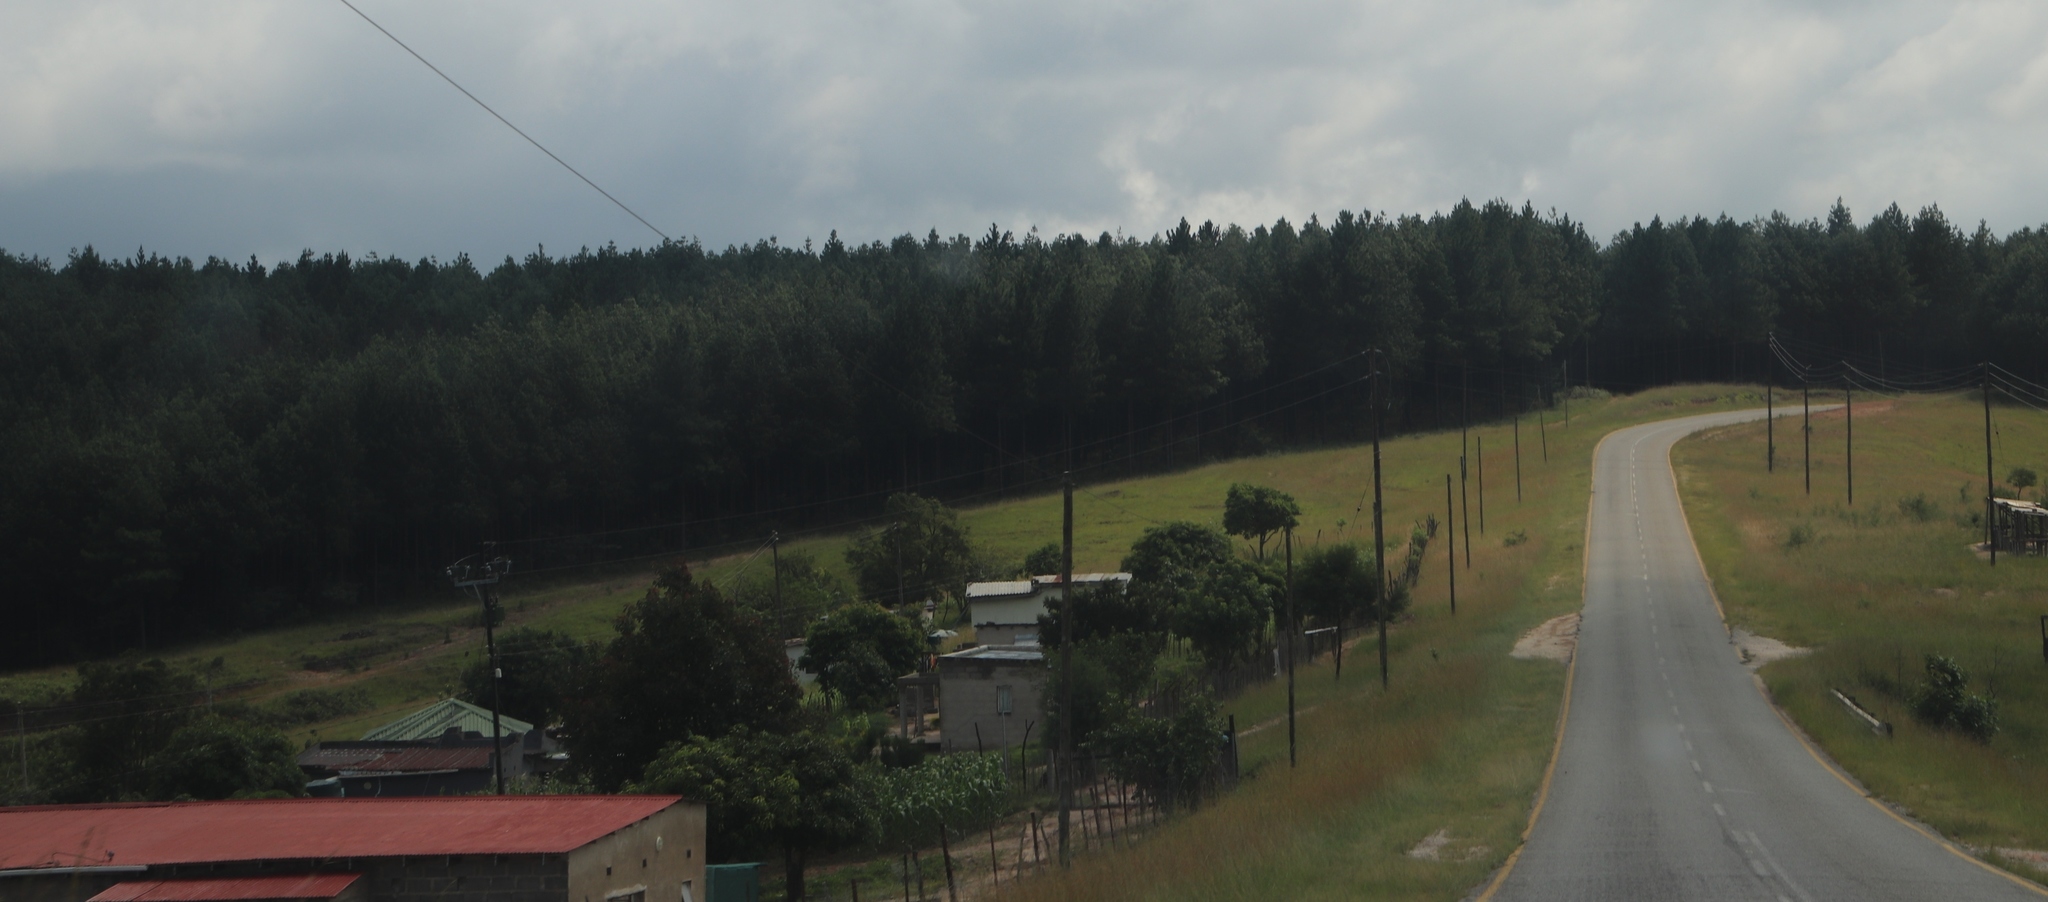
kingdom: Plantae
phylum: Tracheophyta
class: Pinopsida
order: Pinales
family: Pinaceae
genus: Pinus
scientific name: Pinus patula
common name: Mexican weeping pine
